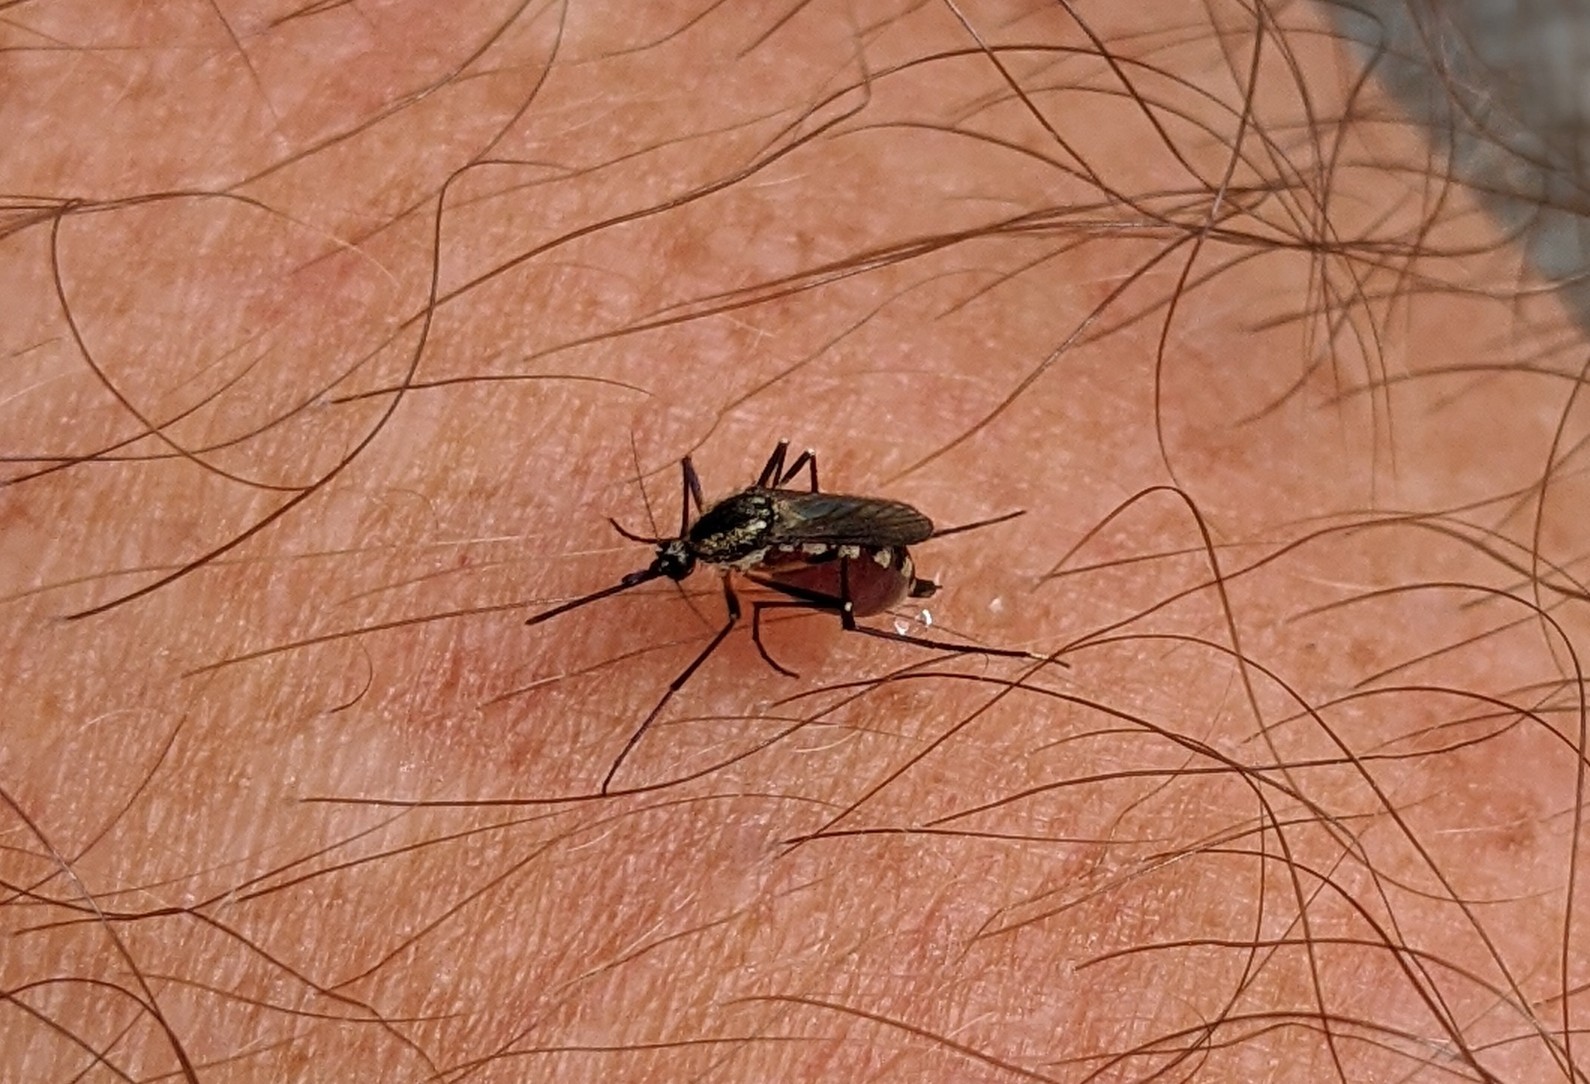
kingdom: Animalia
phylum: Arthropoda
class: Insecta
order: Diptera
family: Culicidae
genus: Psorophora
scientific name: Psorophora mathesoni
